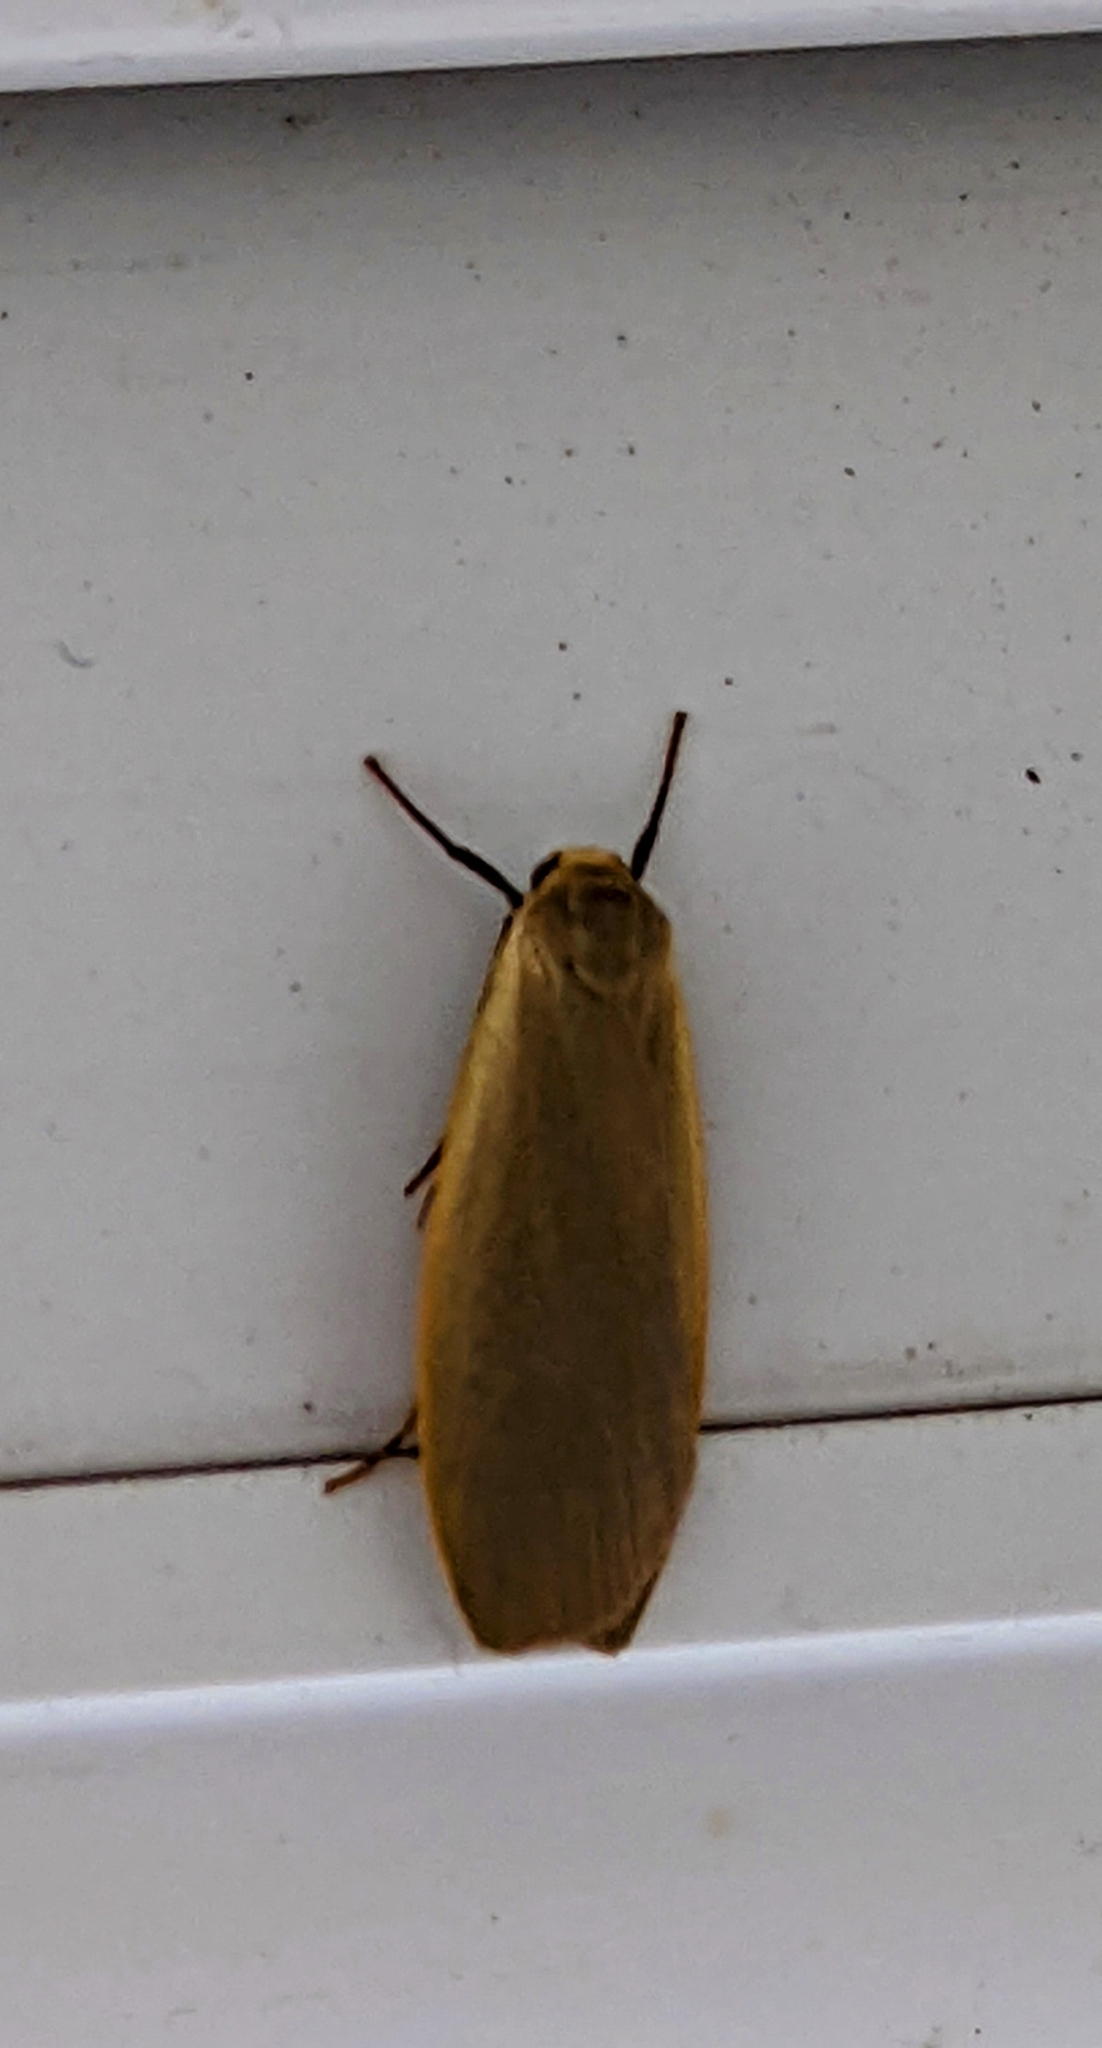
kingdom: Animalia
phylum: Arthropoda
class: Insecta
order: Lepidoptera
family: Erebidae
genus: Collita
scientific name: Collita griseola
